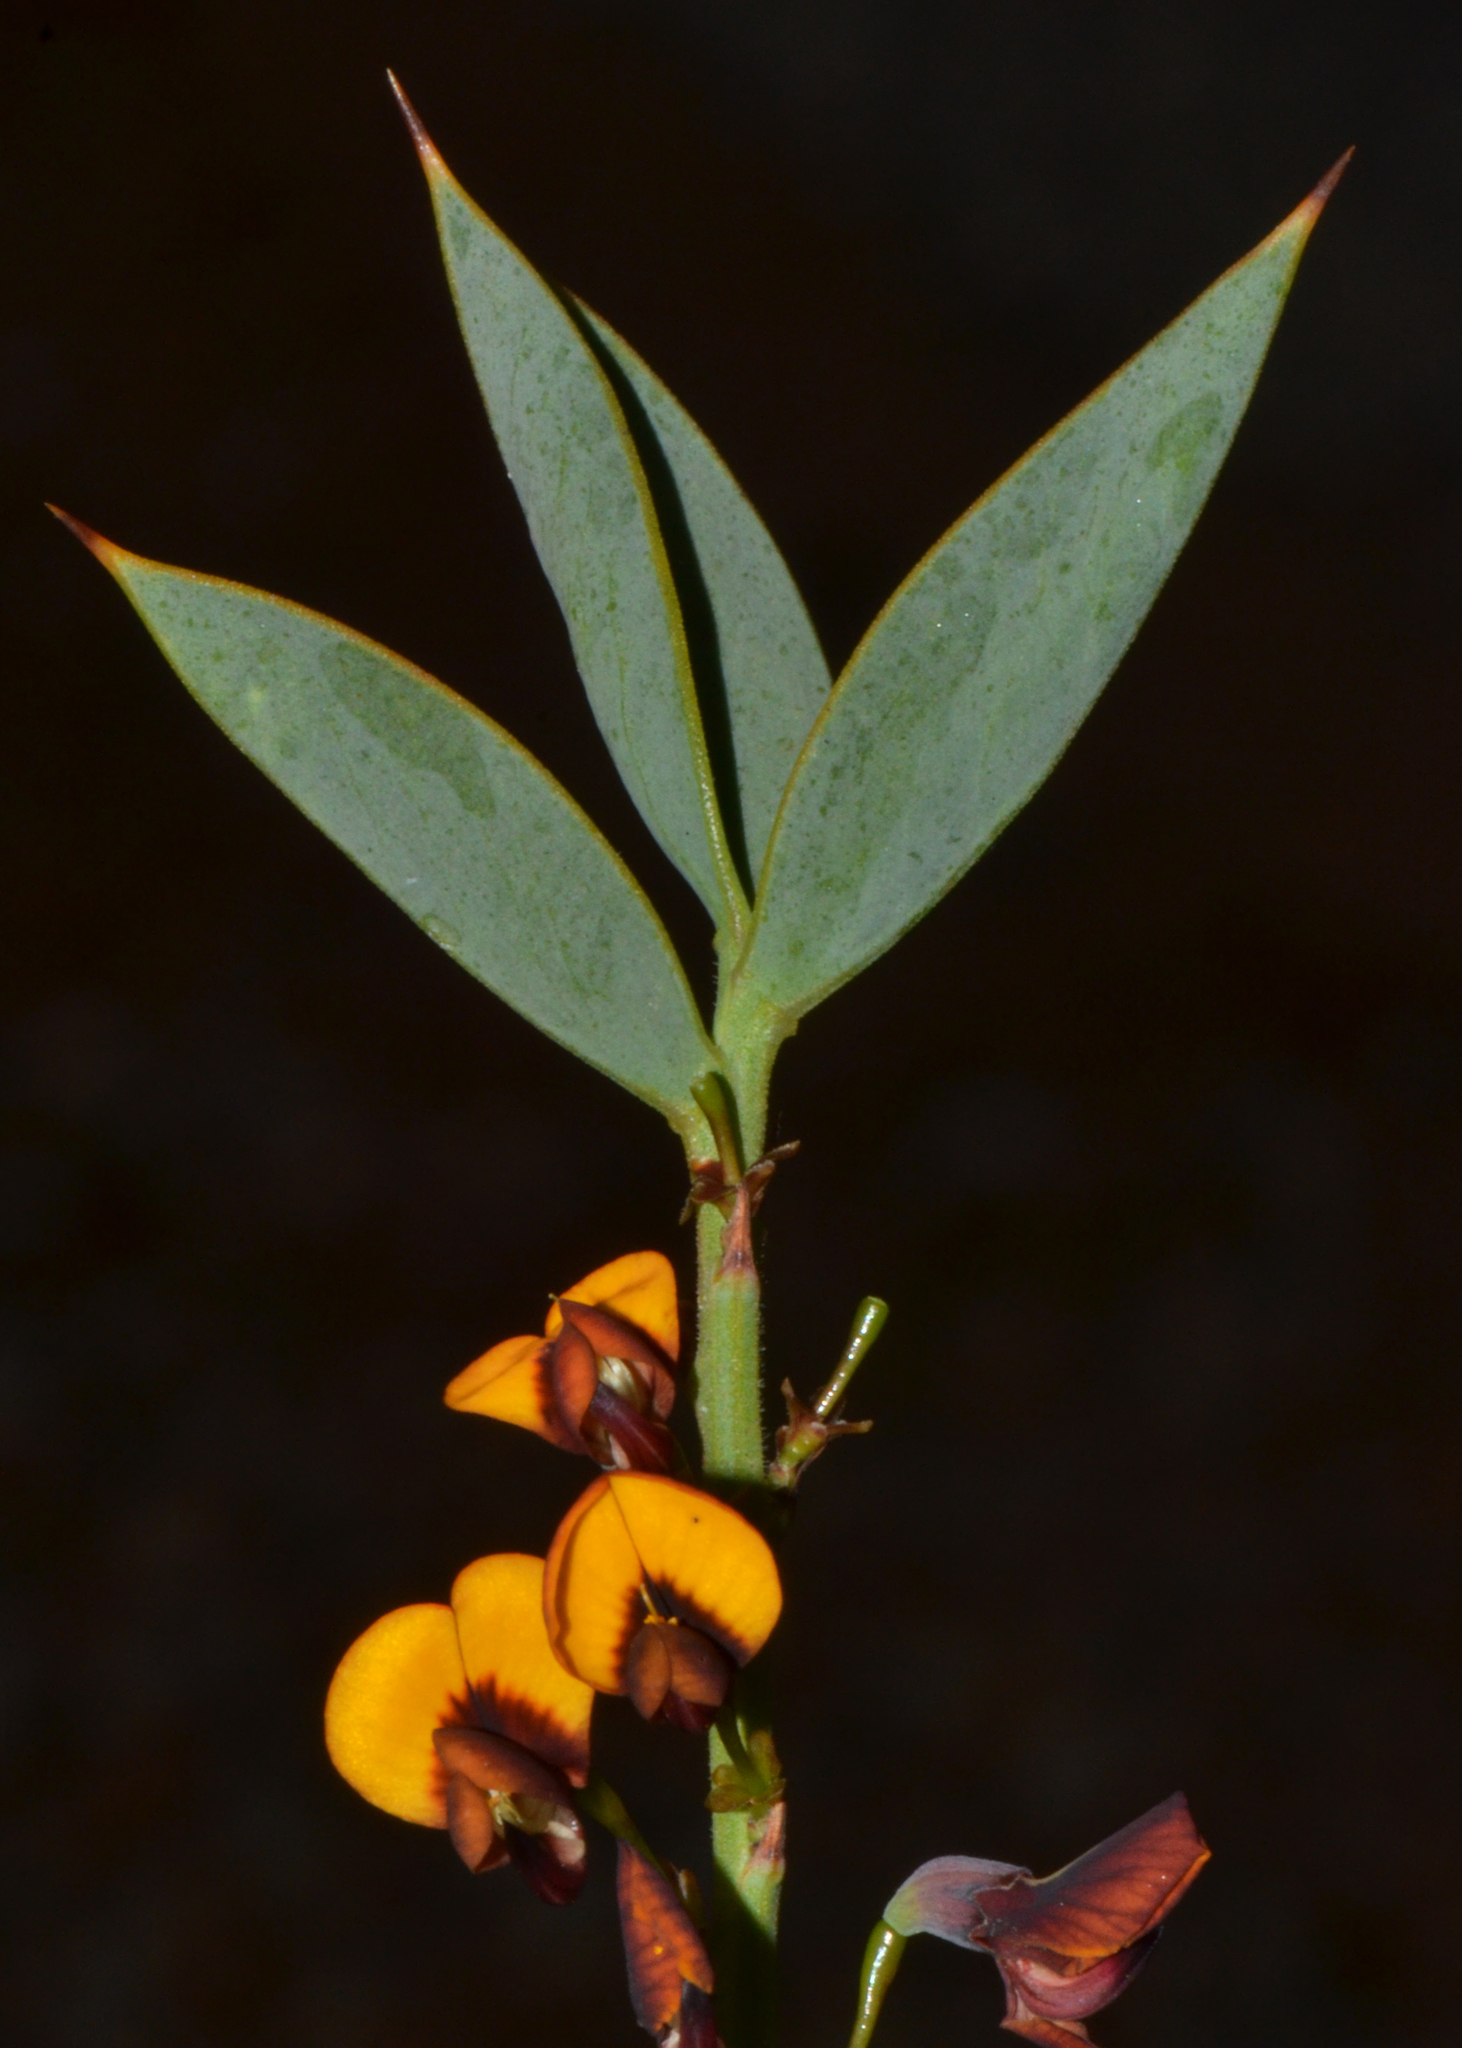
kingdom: Plantae
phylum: Tracheophyta
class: Magnoliopsida
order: Fabales
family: Fabaceae
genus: Daviesia
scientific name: Daviesia nudiflora
